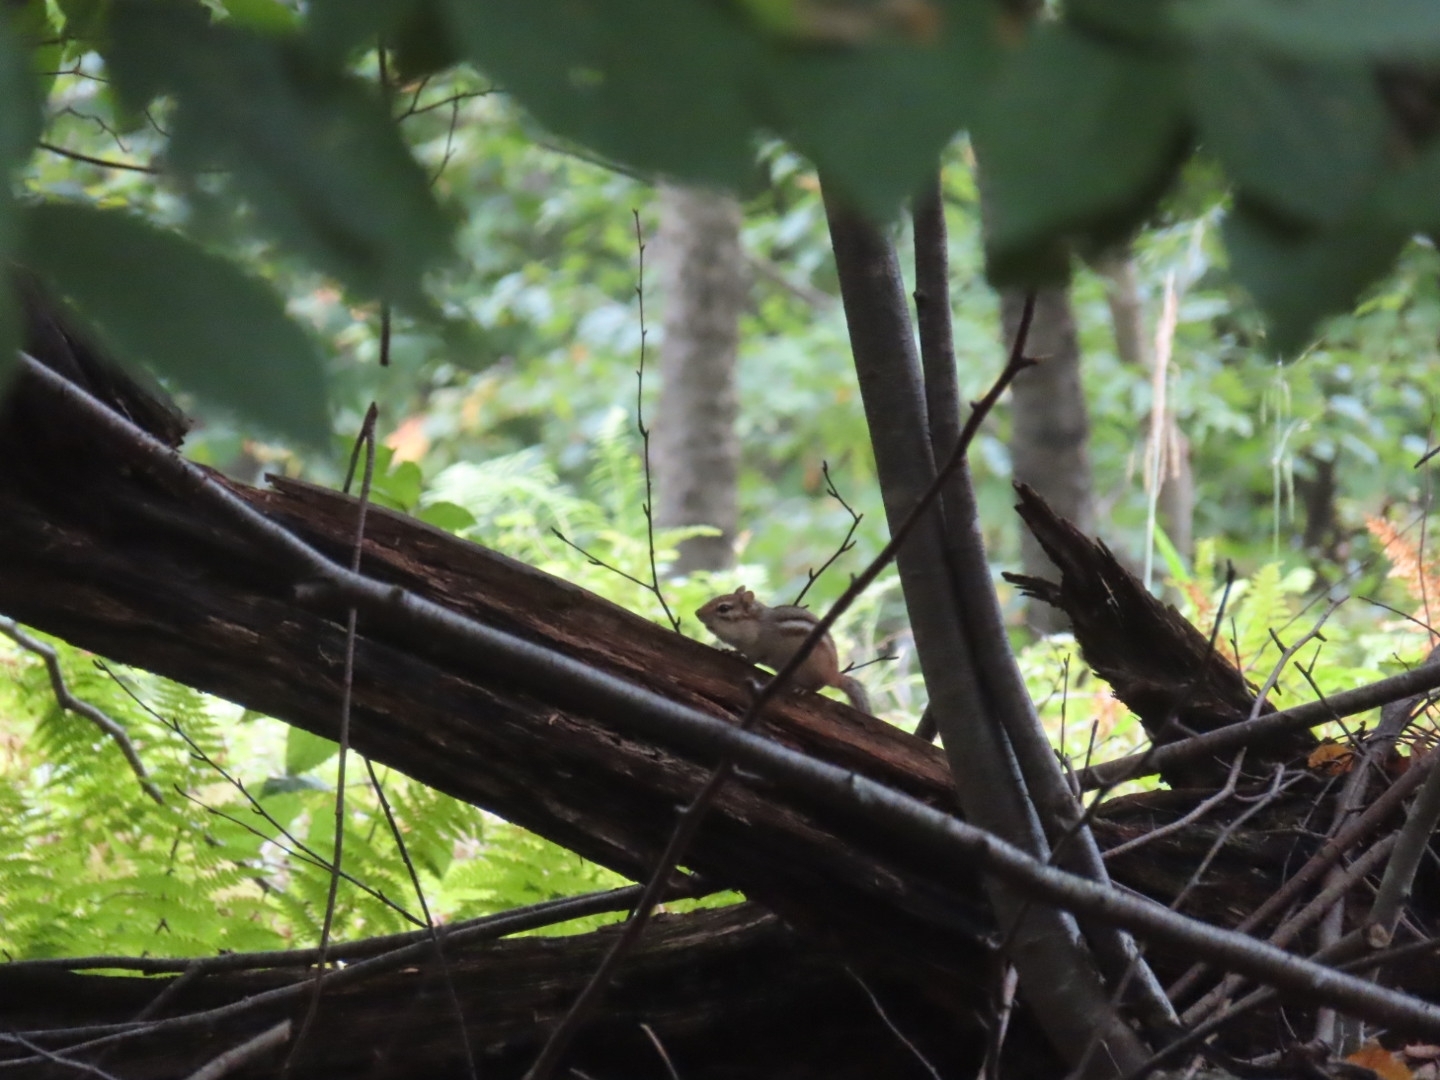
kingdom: Animalia
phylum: Chordata
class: Mammalia
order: Rodentia
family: Sciuridae
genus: Tamias
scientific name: Tamias striatus
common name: Eastern chipmunk
